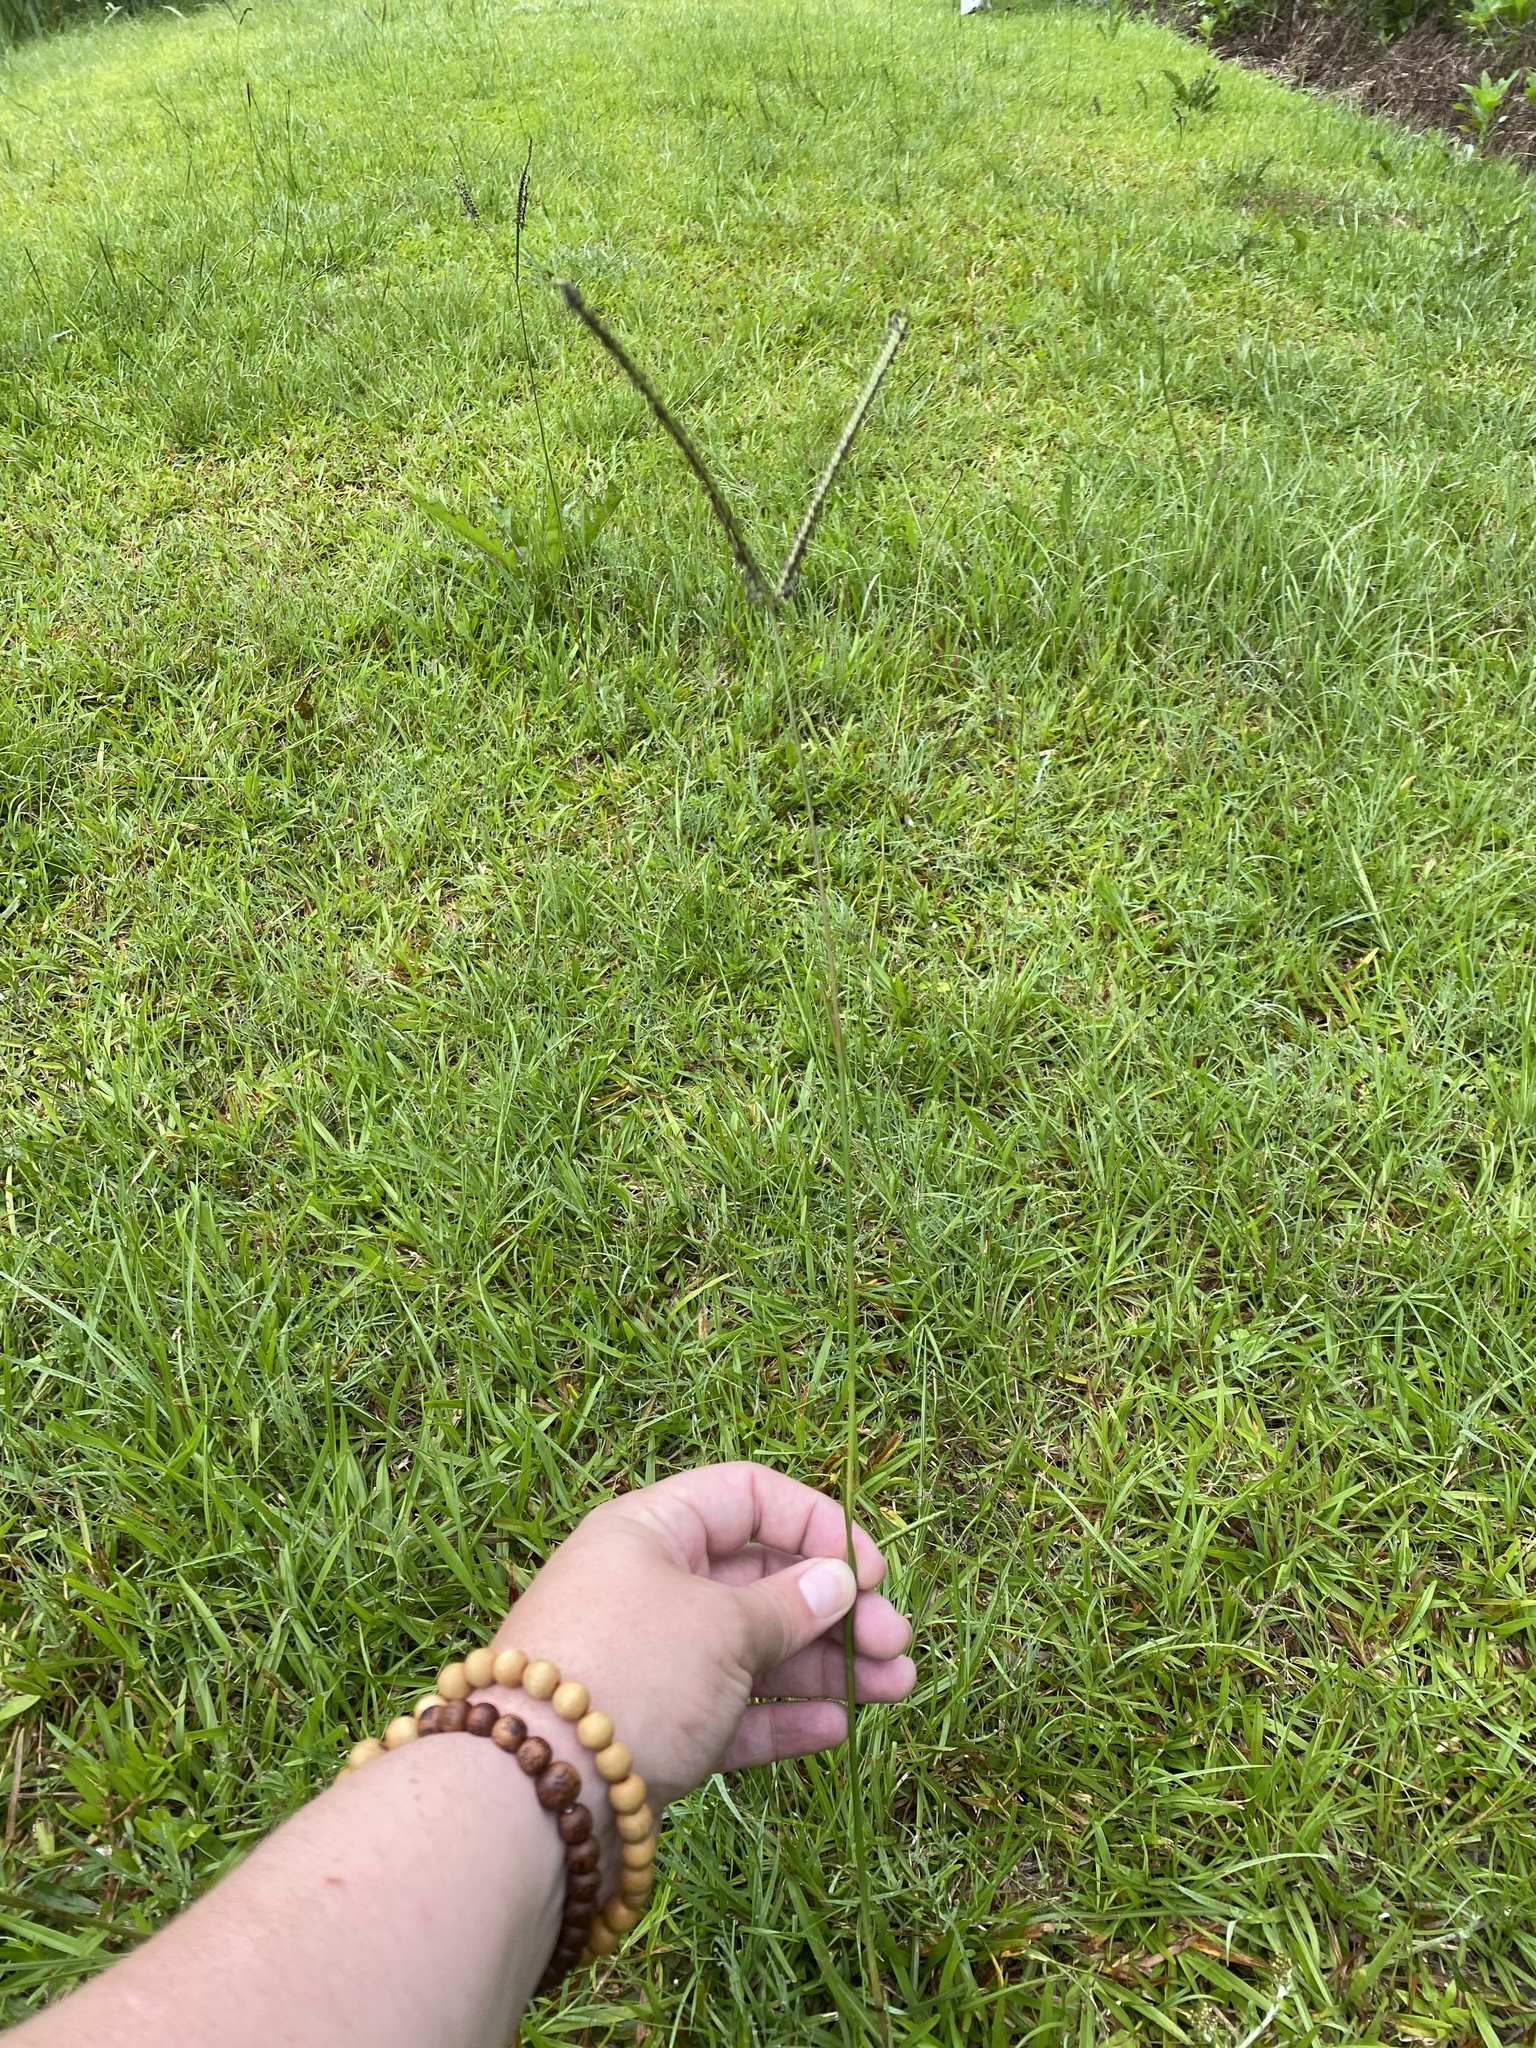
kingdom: Plantae
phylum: Tracheophyta
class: Liliopsida
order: Poales
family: Poaceae
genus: Paspalum
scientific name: Paspalum notatum
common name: Bahiagrass
